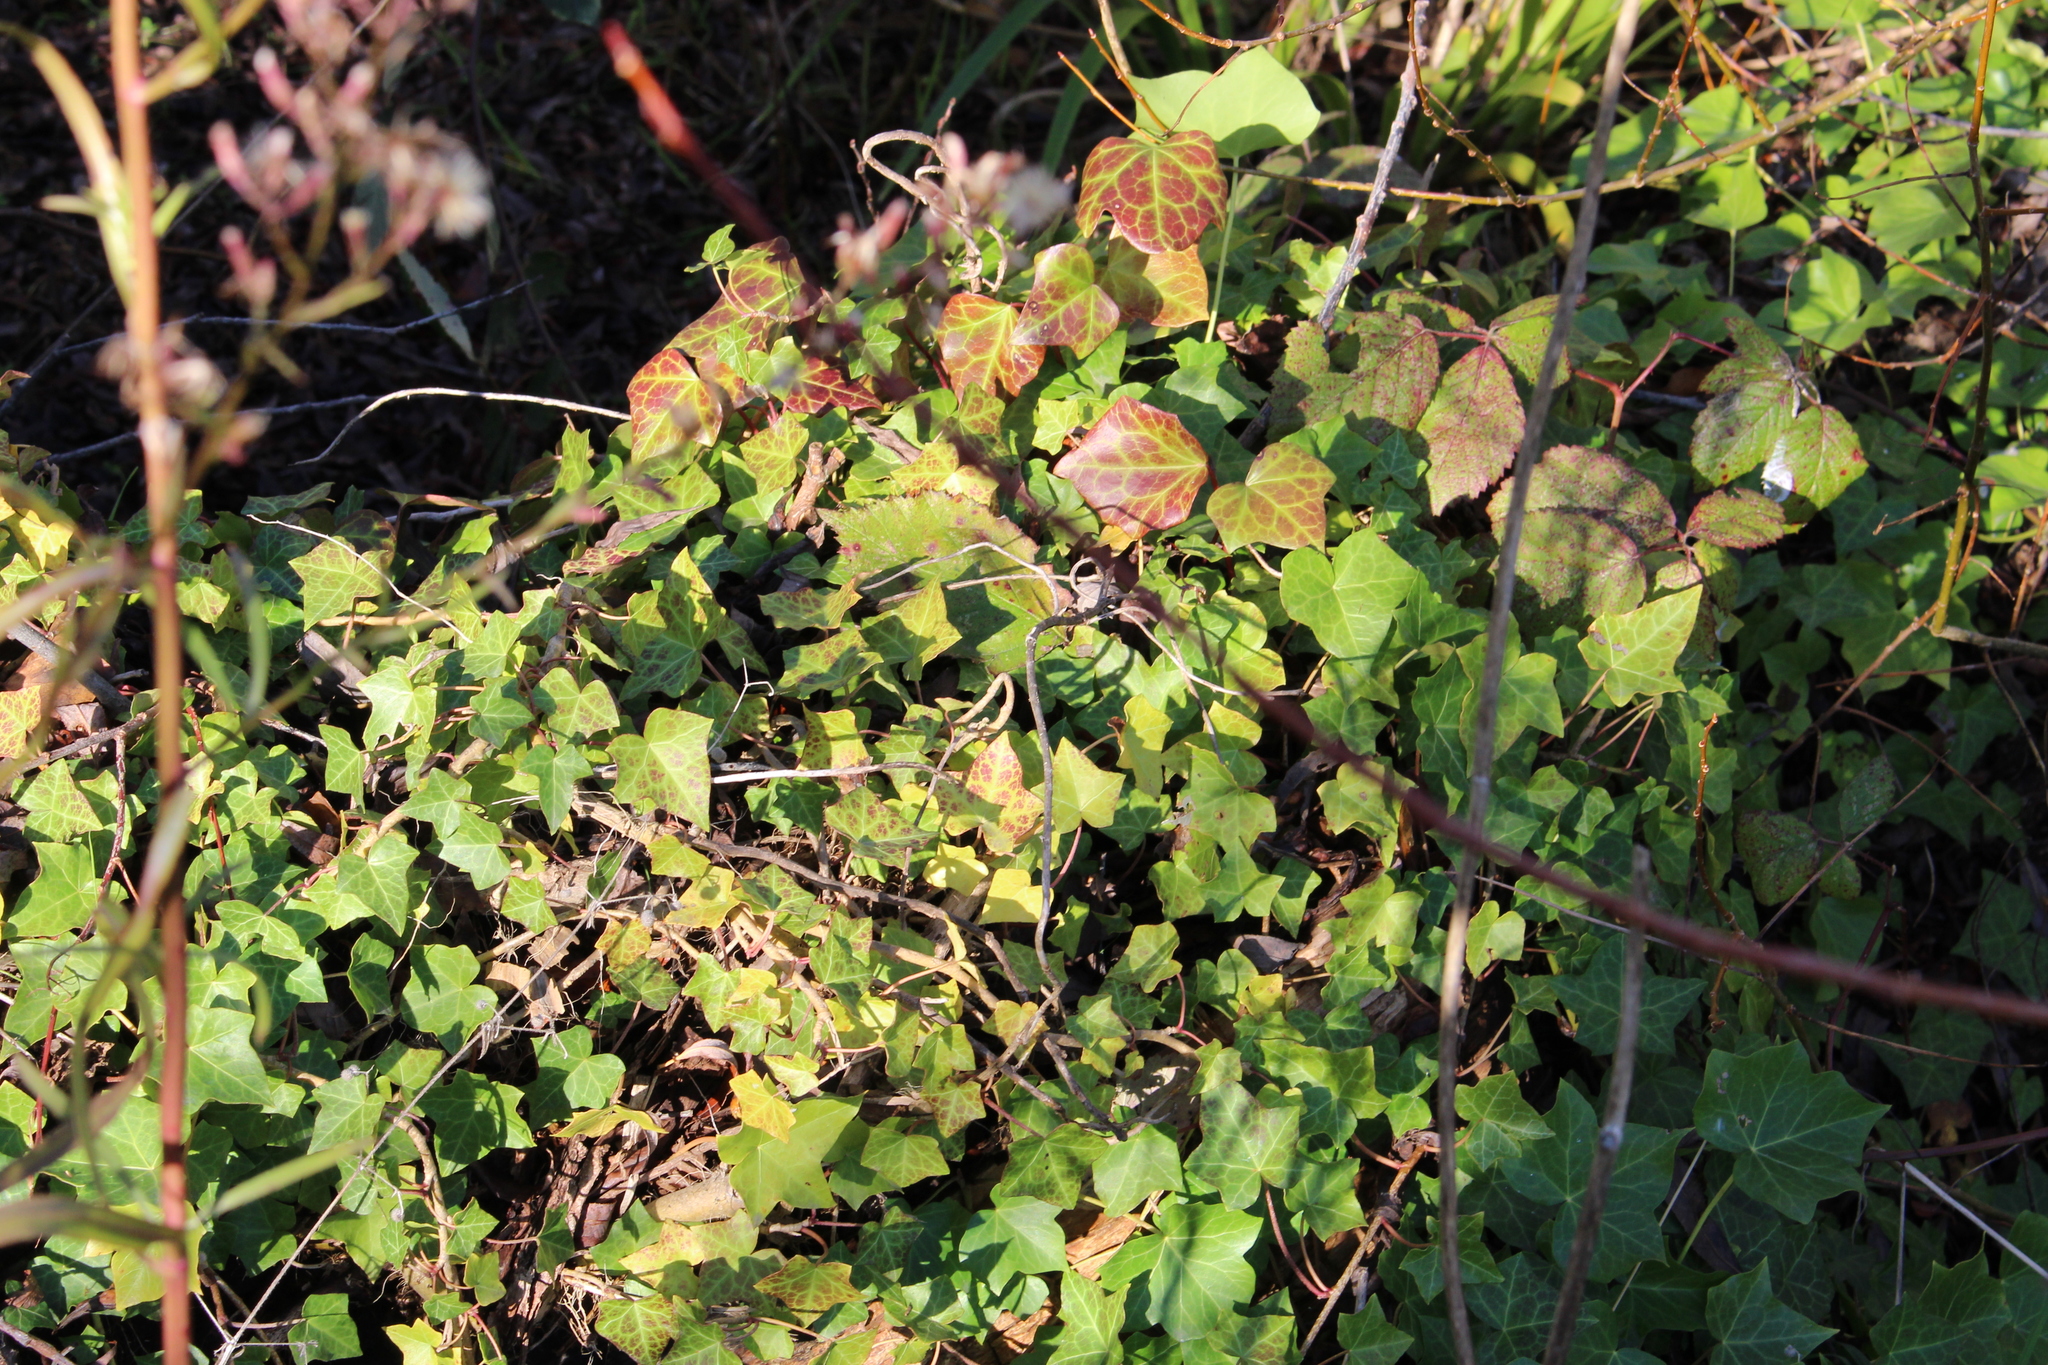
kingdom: Plantae
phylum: Tracheophyta
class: Magnoliopsida
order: Apiales
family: Araliaceae
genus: Hedera
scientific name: Hedera helix
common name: Ivy
